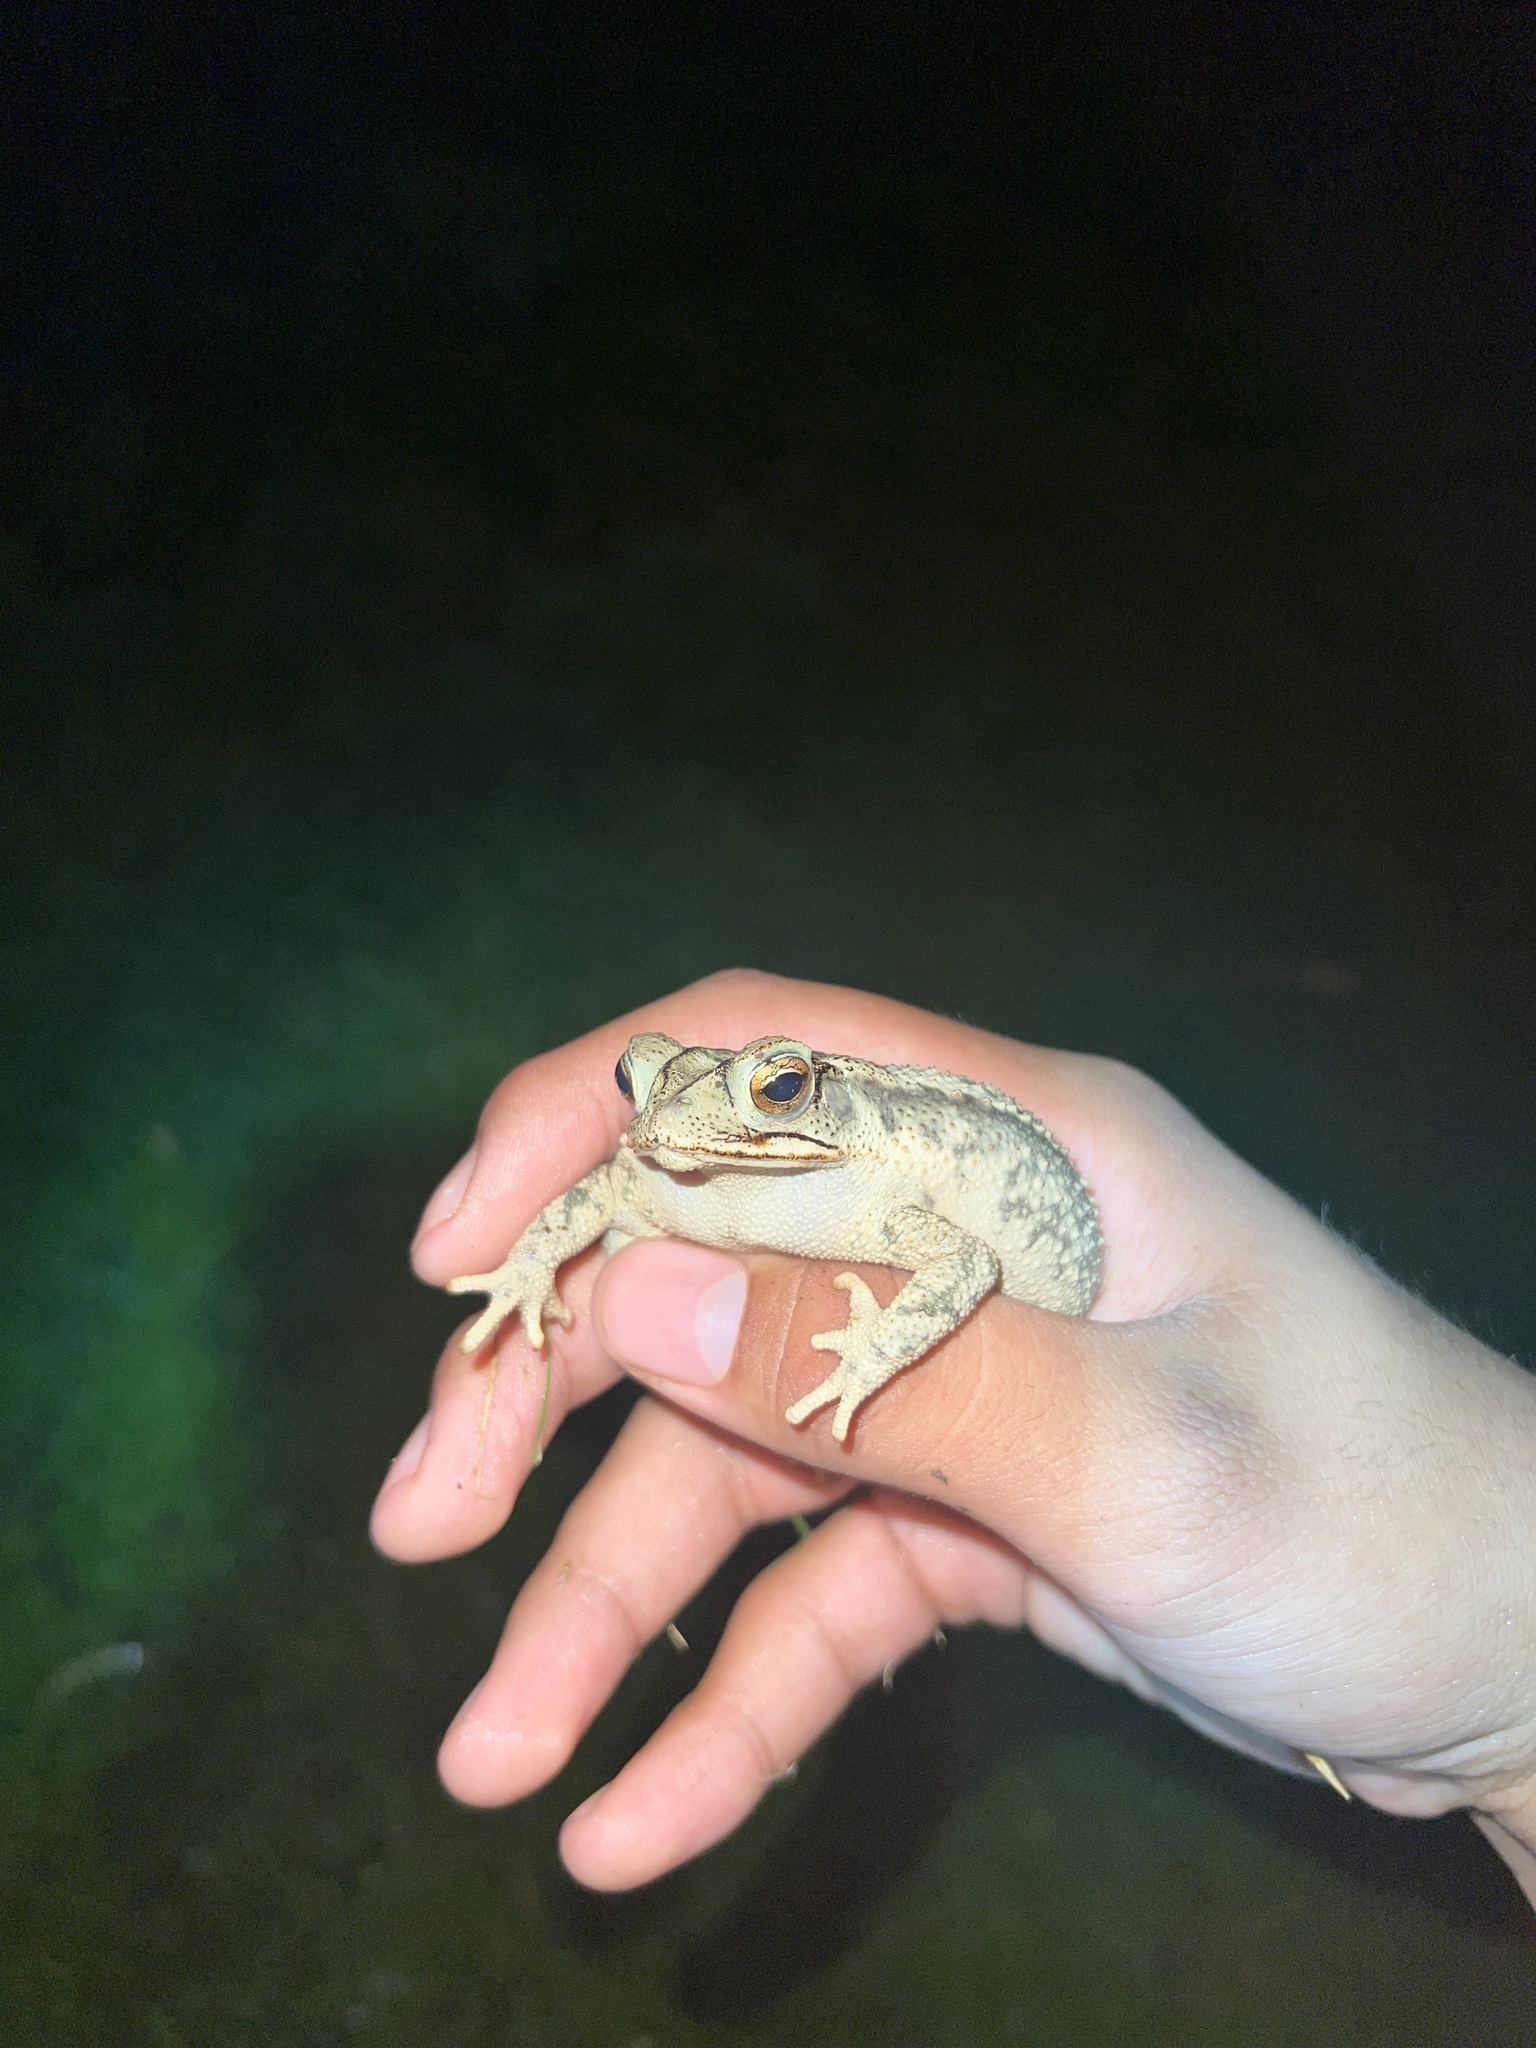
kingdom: Animalia
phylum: Chordata
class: Amphibia
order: Anura
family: Bufonidae
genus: Incilius
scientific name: Incilius nebulifer
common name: Gulf coast toad
